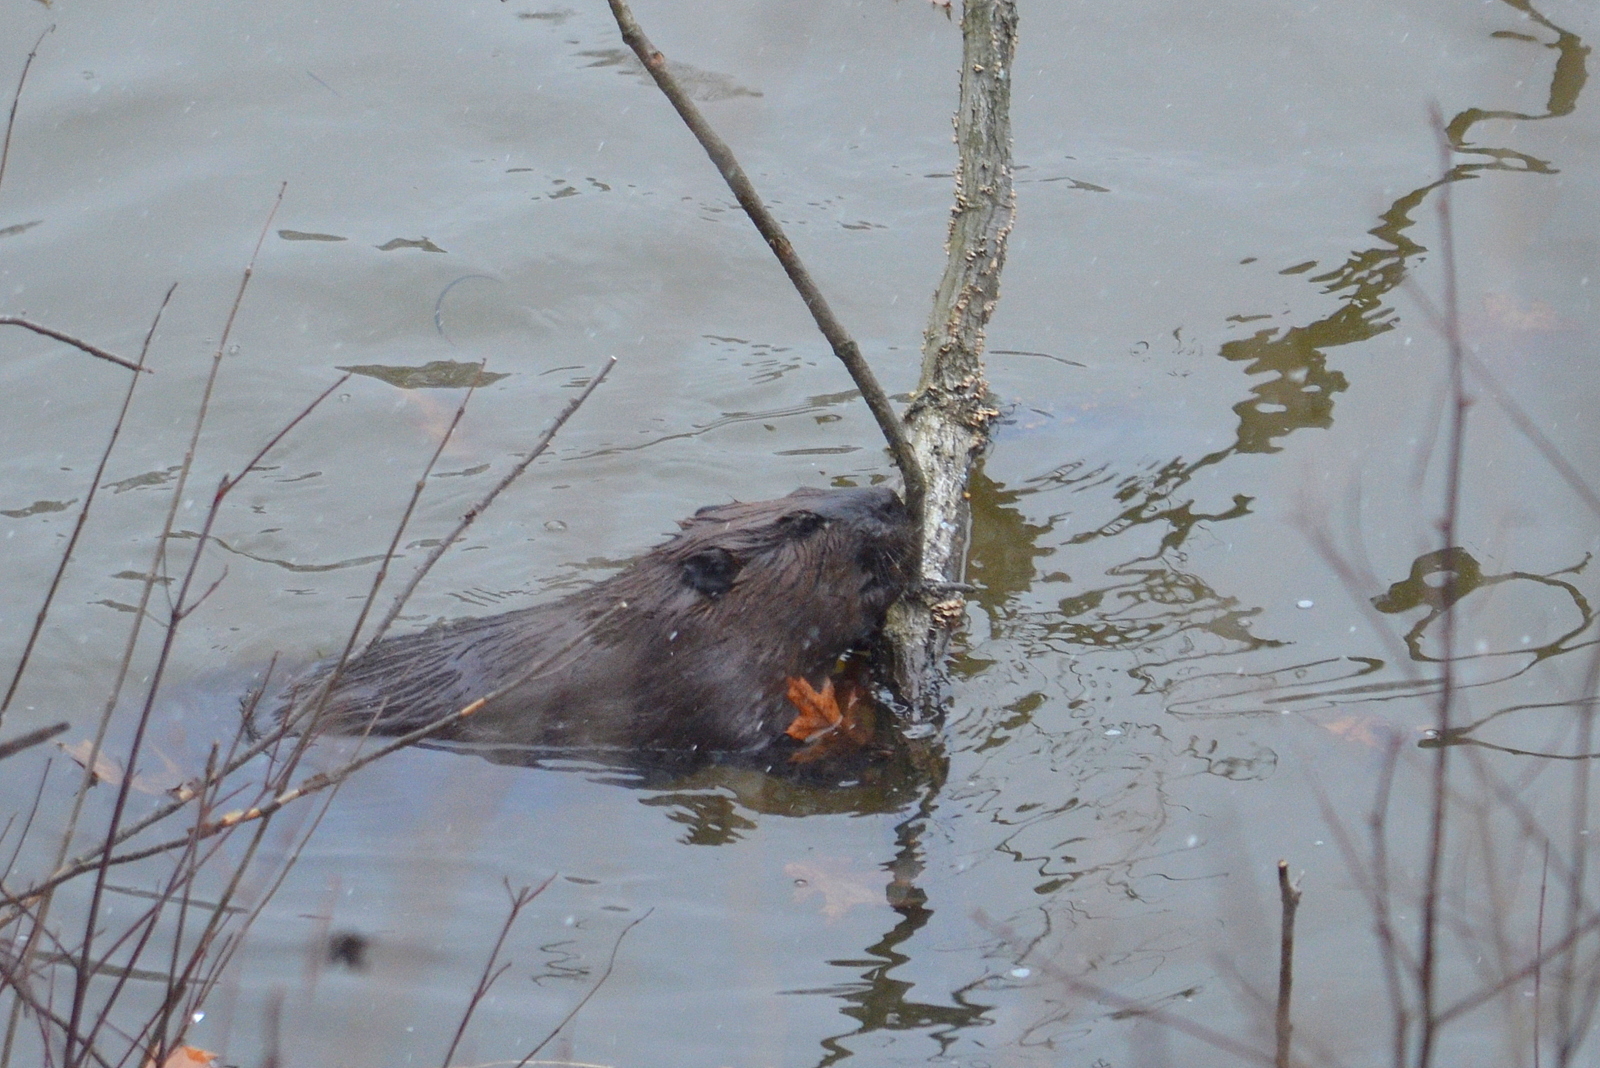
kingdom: Animalia
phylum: Chordata
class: Mammalia
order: Rodentia
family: Castoridae
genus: Castor
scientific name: Castor canadensis
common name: American beaver
